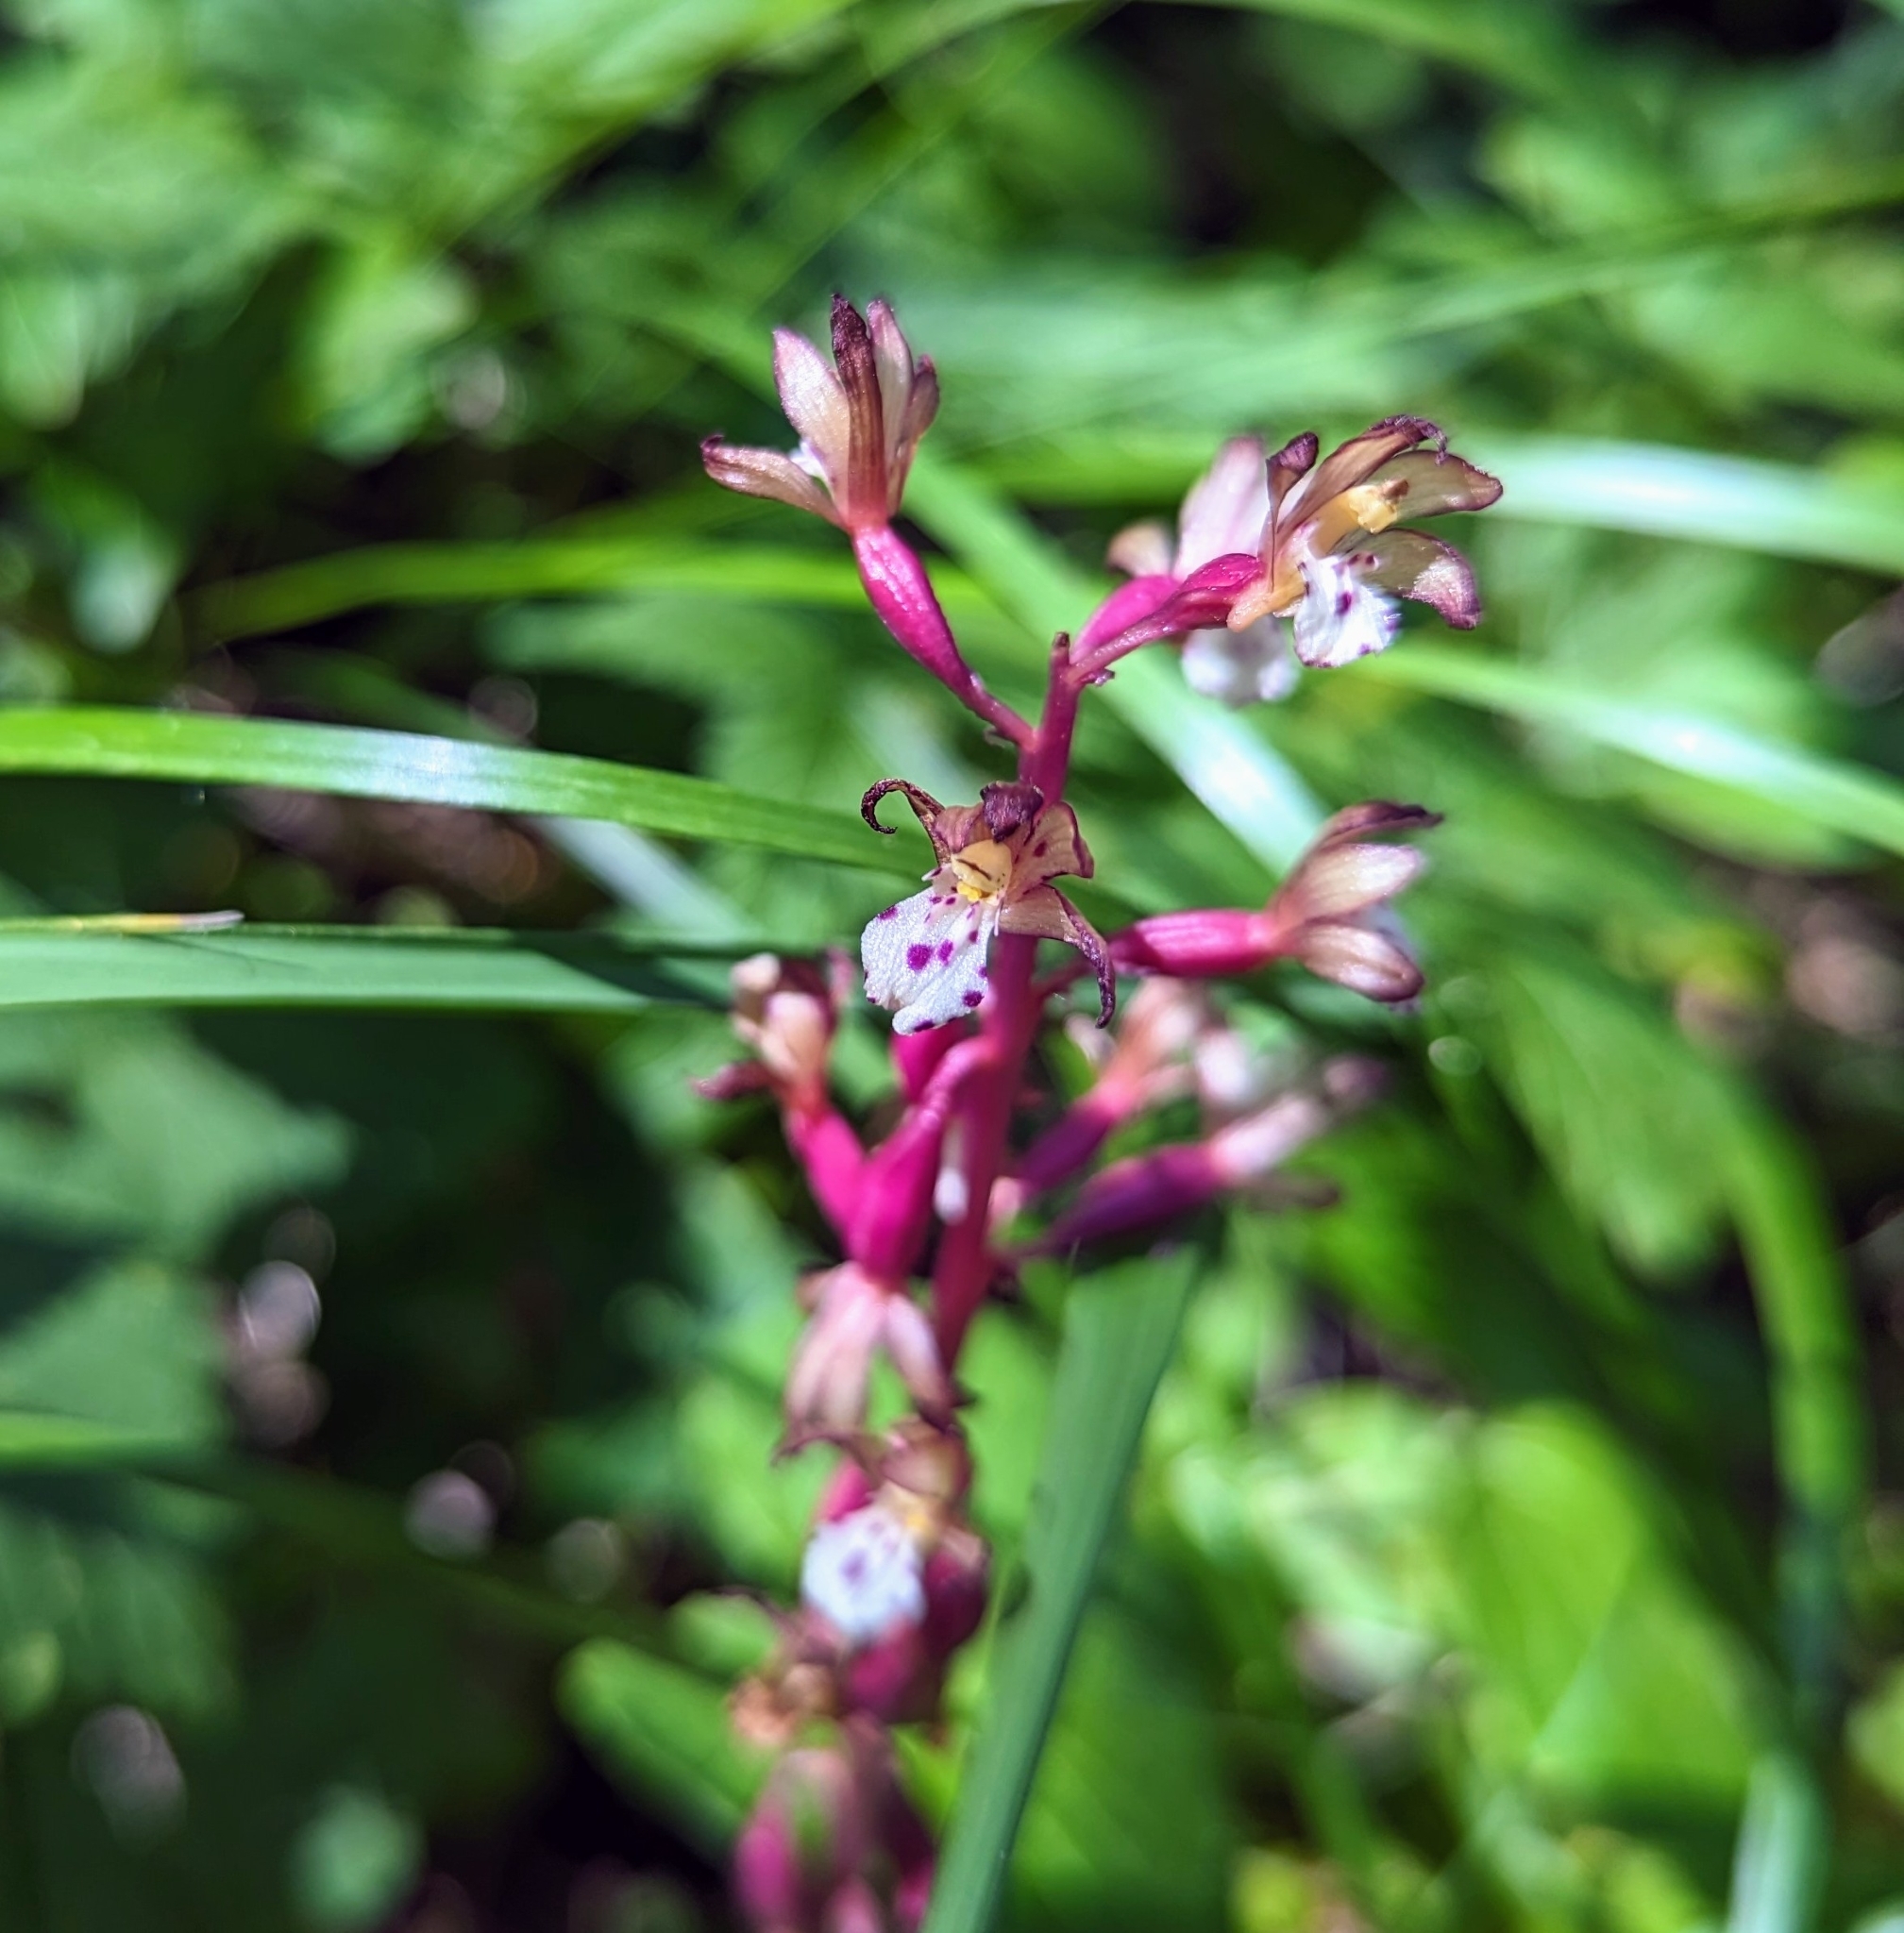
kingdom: Plantae
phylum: Tracheophyta
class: Liliopsida
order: Asparagales
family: Orchidaceae
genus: Corallorhiza
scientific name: Corallorhiza maculata
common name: Spotted coralroot
